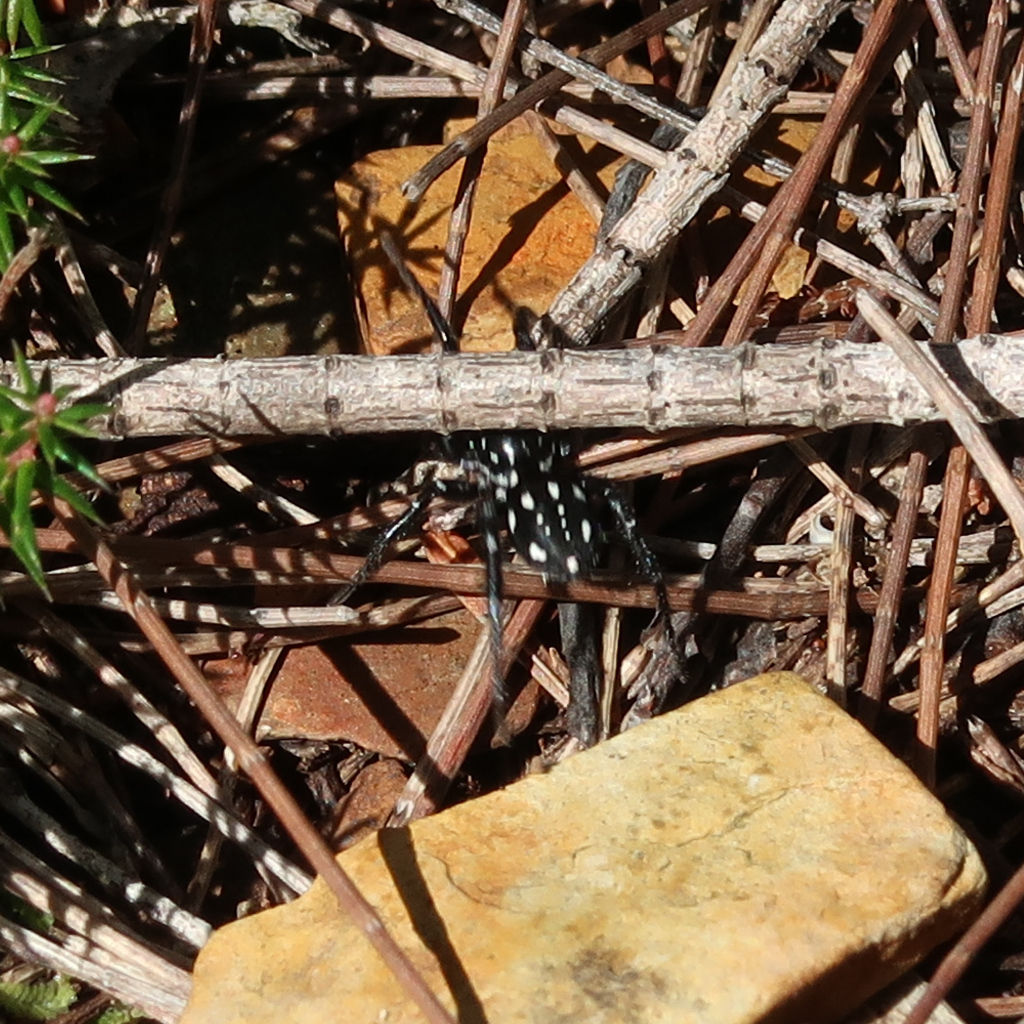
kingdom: Animalia
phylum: Arthropoda
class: Arachnida
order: Araneae
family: Corinnidae
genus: Nyssus
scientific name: Nyssus albopunctatus
